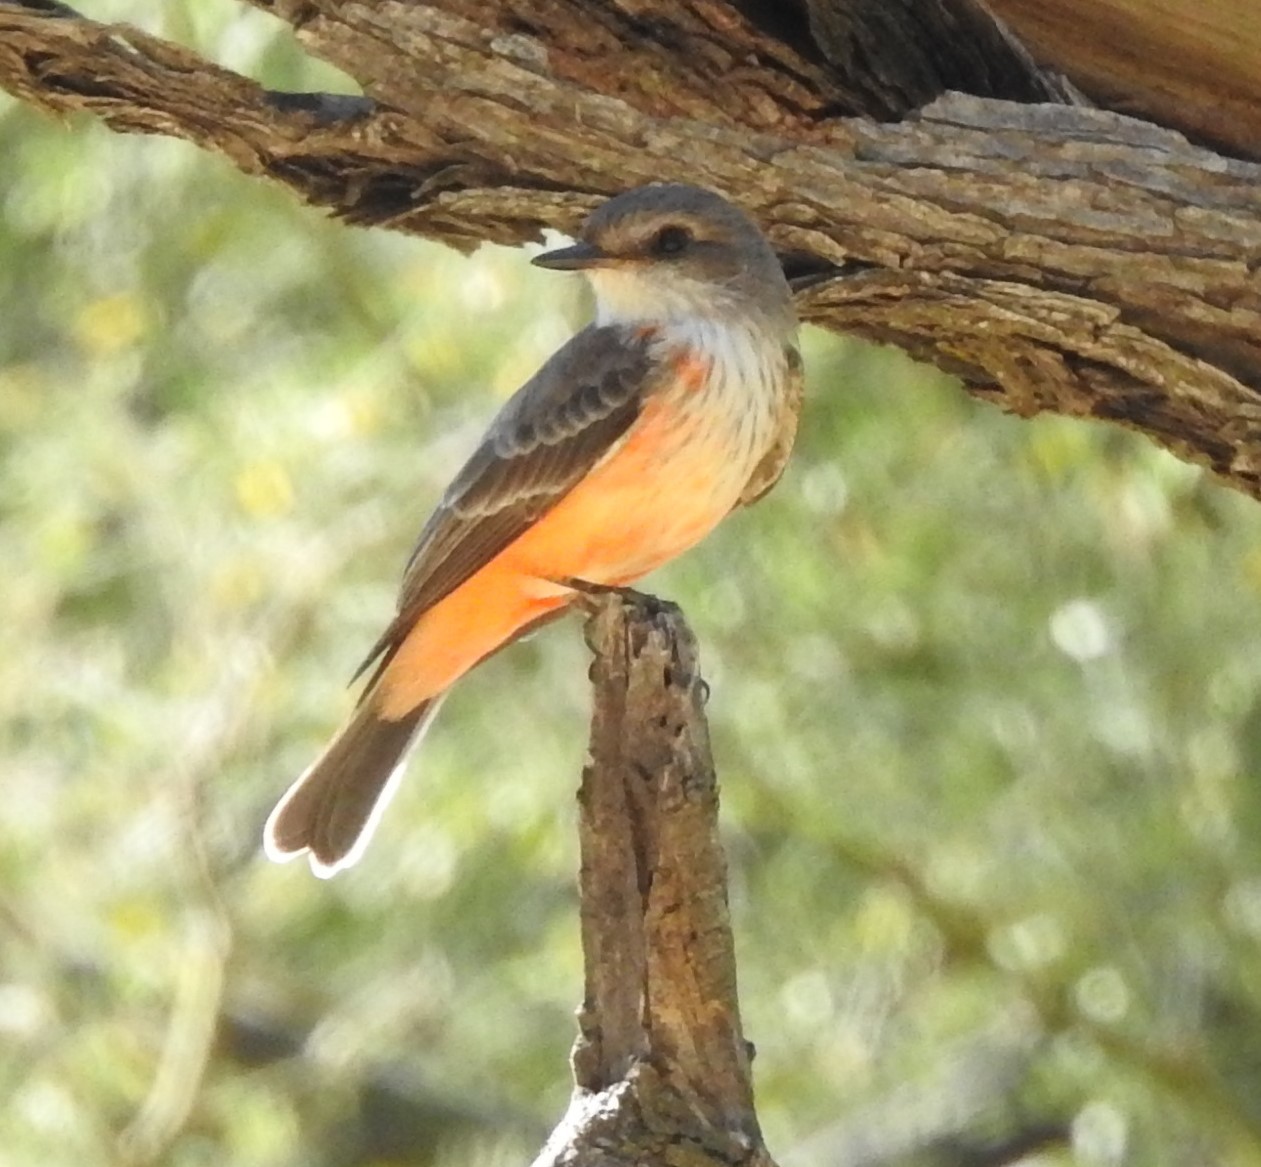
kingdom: Animalia
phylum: Chordata
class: Aves
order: Passeriformes
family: Tyrannidae
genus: Pyrocephalus
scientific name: Pyrocephalus rubinus
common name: Vermilion flycatcher
